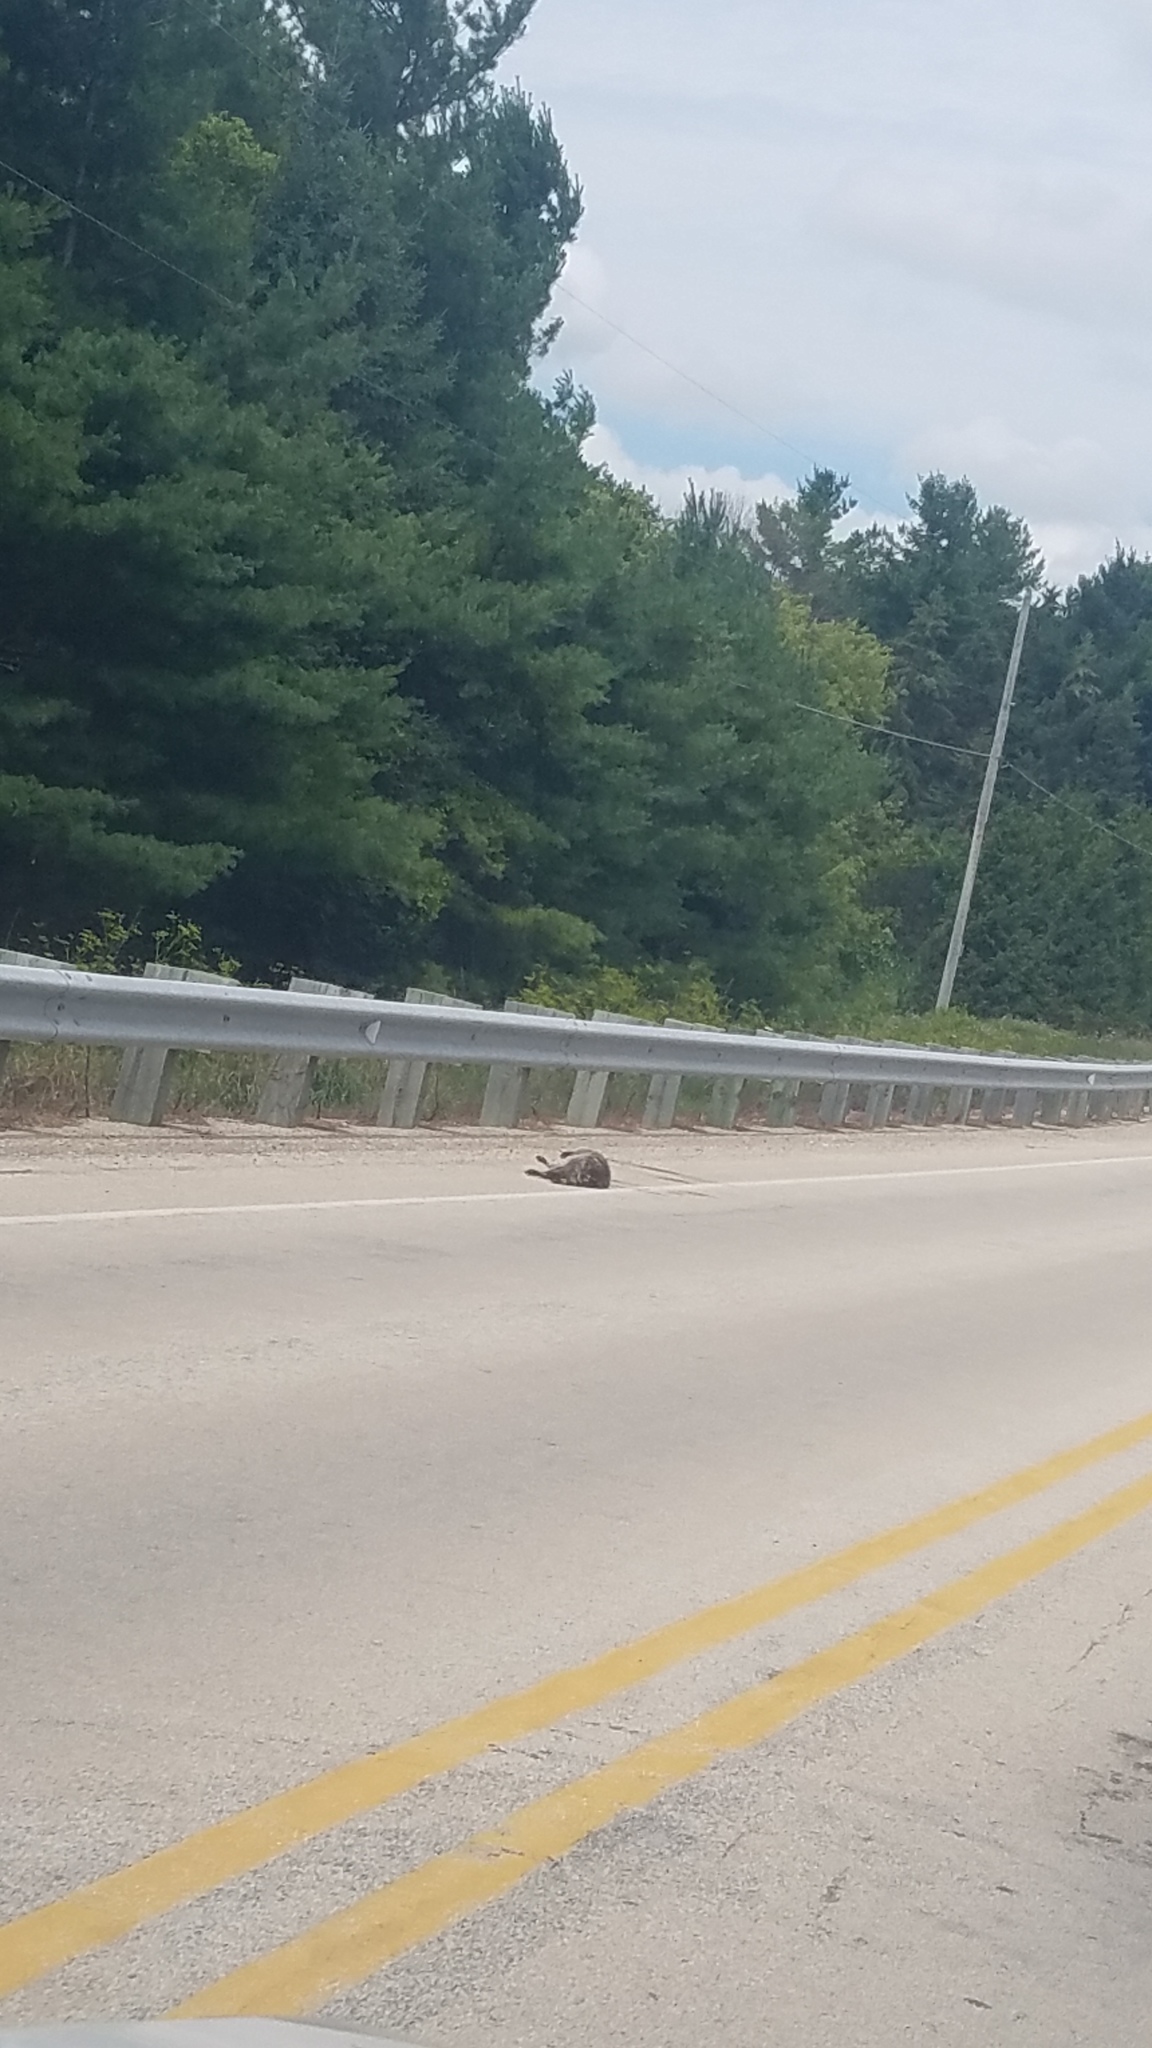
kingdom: Animalia
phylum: Chordata
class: Mammalia
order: Carnivora
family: Procyonidae
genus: Procyon
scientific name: Procyon lotor
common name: Raccoon
